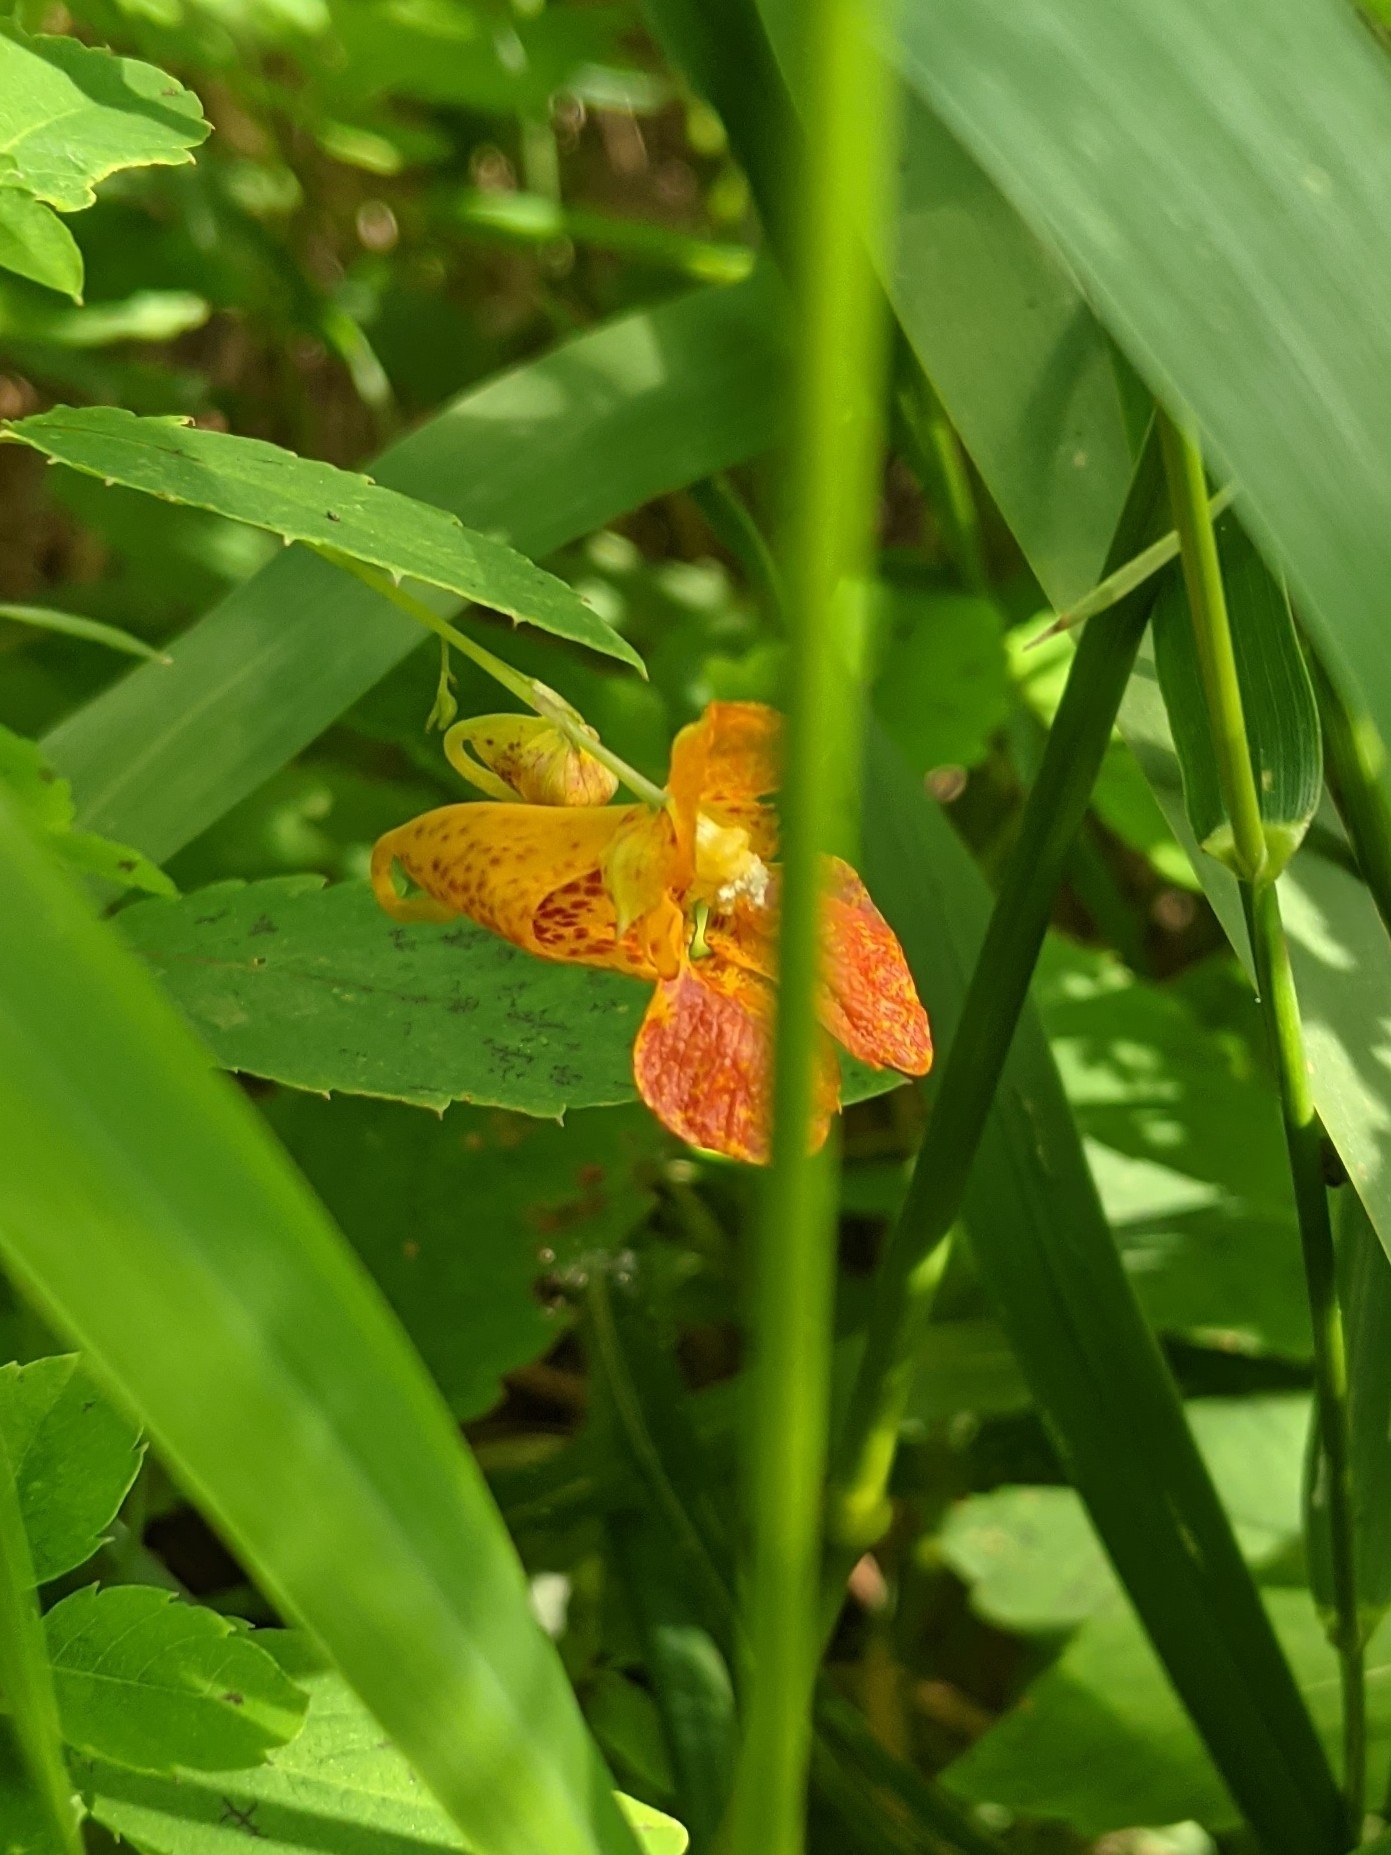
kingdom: Plantae
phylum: Tracheophyta
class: Magnoliopsida
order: Ericales
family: Balsaminaceae
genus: Impatiens
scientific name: Impatiens capensis
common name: Orange balsam
